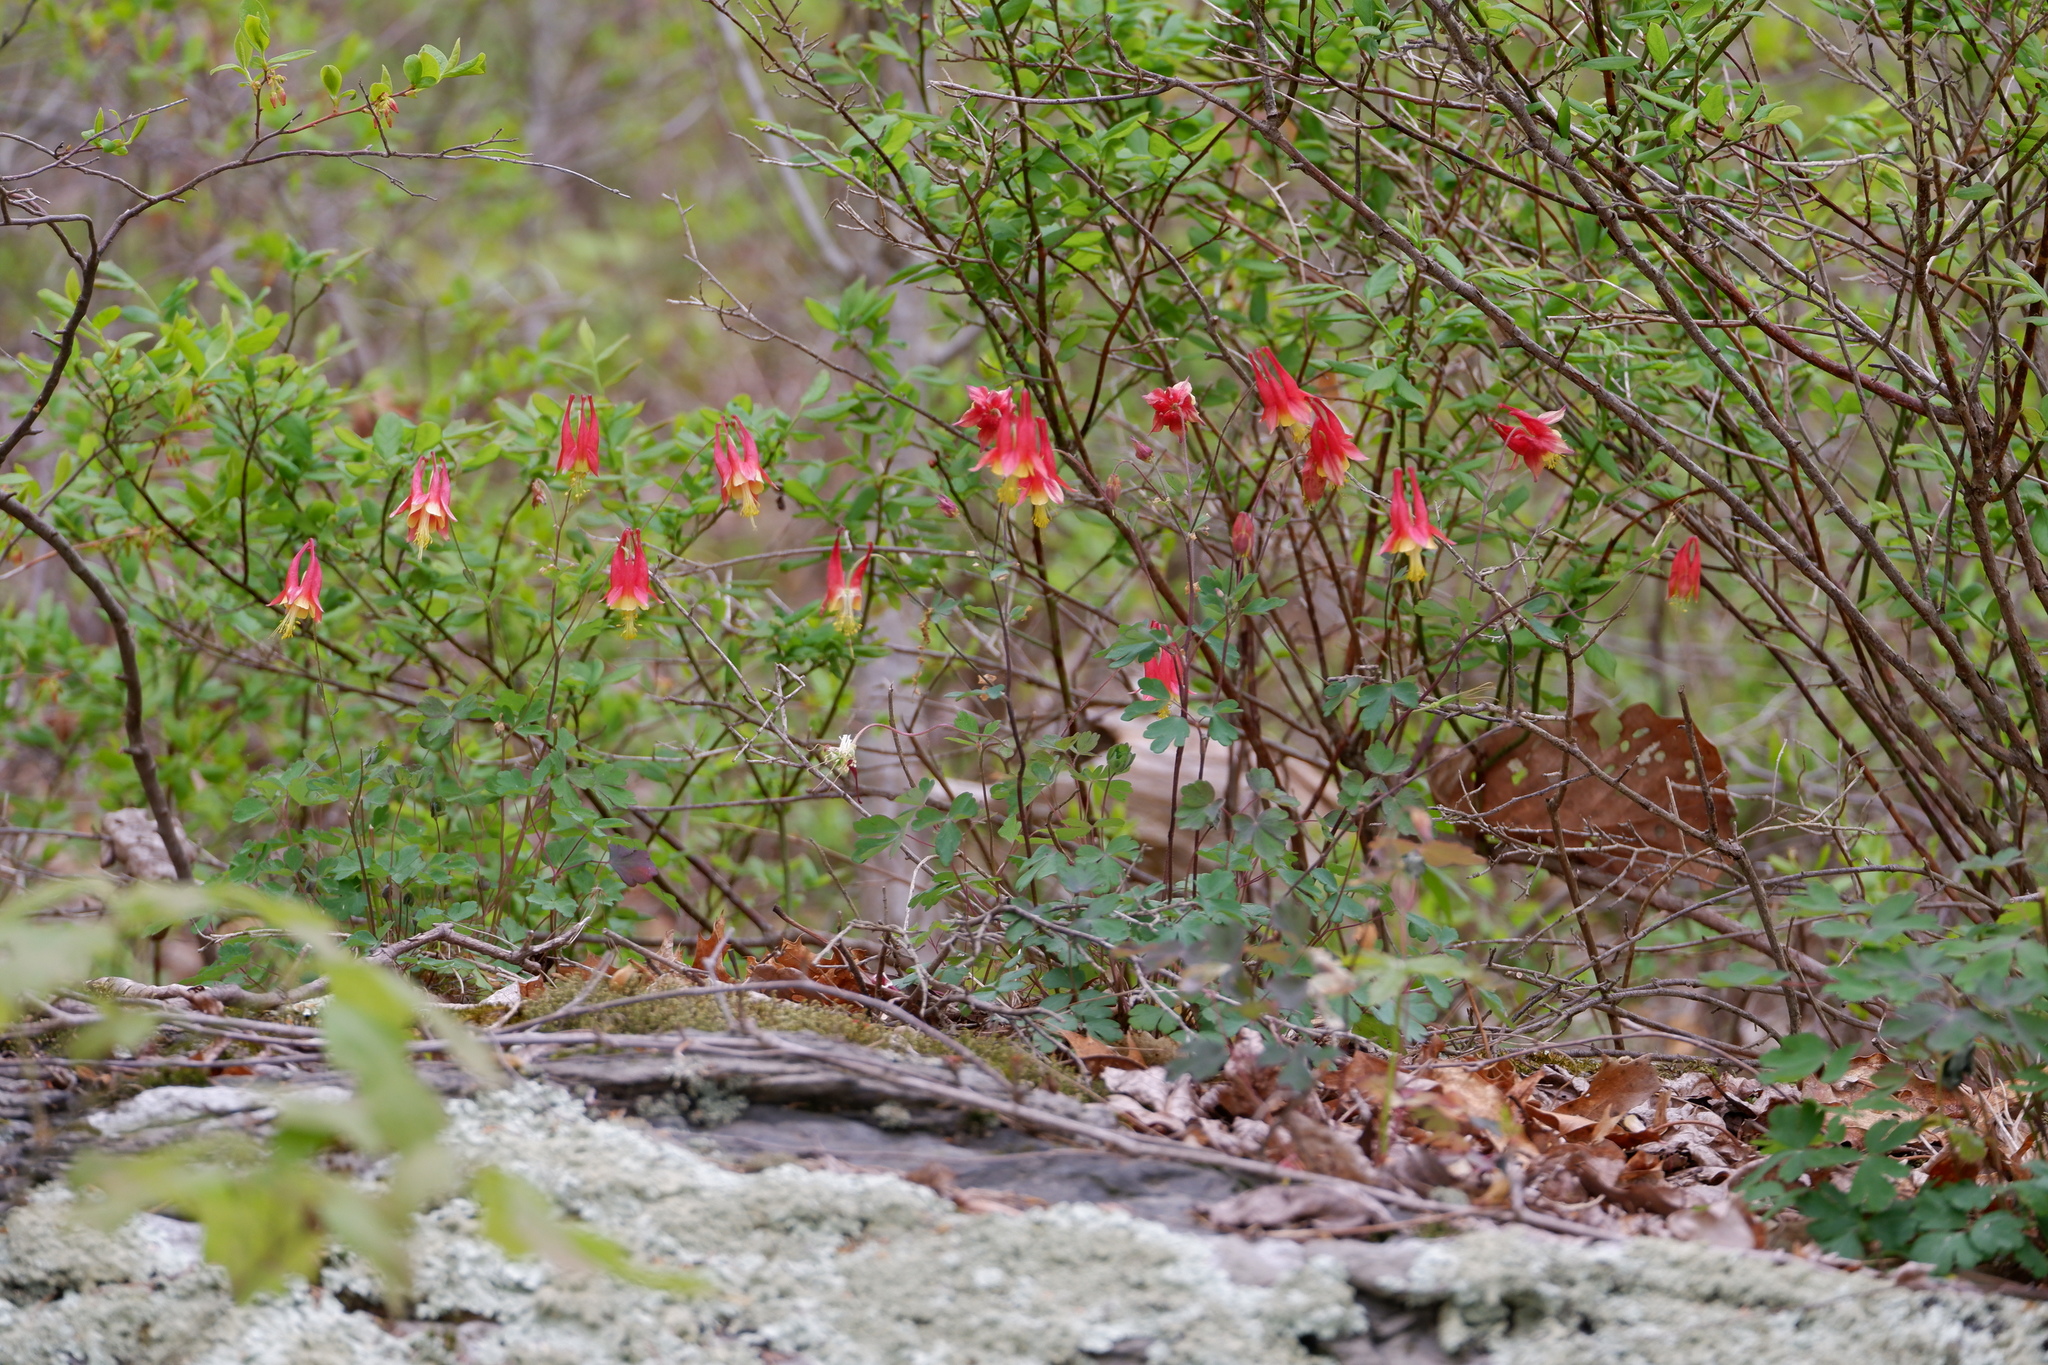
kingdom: Plantae
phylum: Tracheophyta
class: Magnoliopsida
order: Ranunculales
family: Ranunculaceae
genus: Aquilegia
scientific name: Aquilegia canadensis
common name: American columbine
